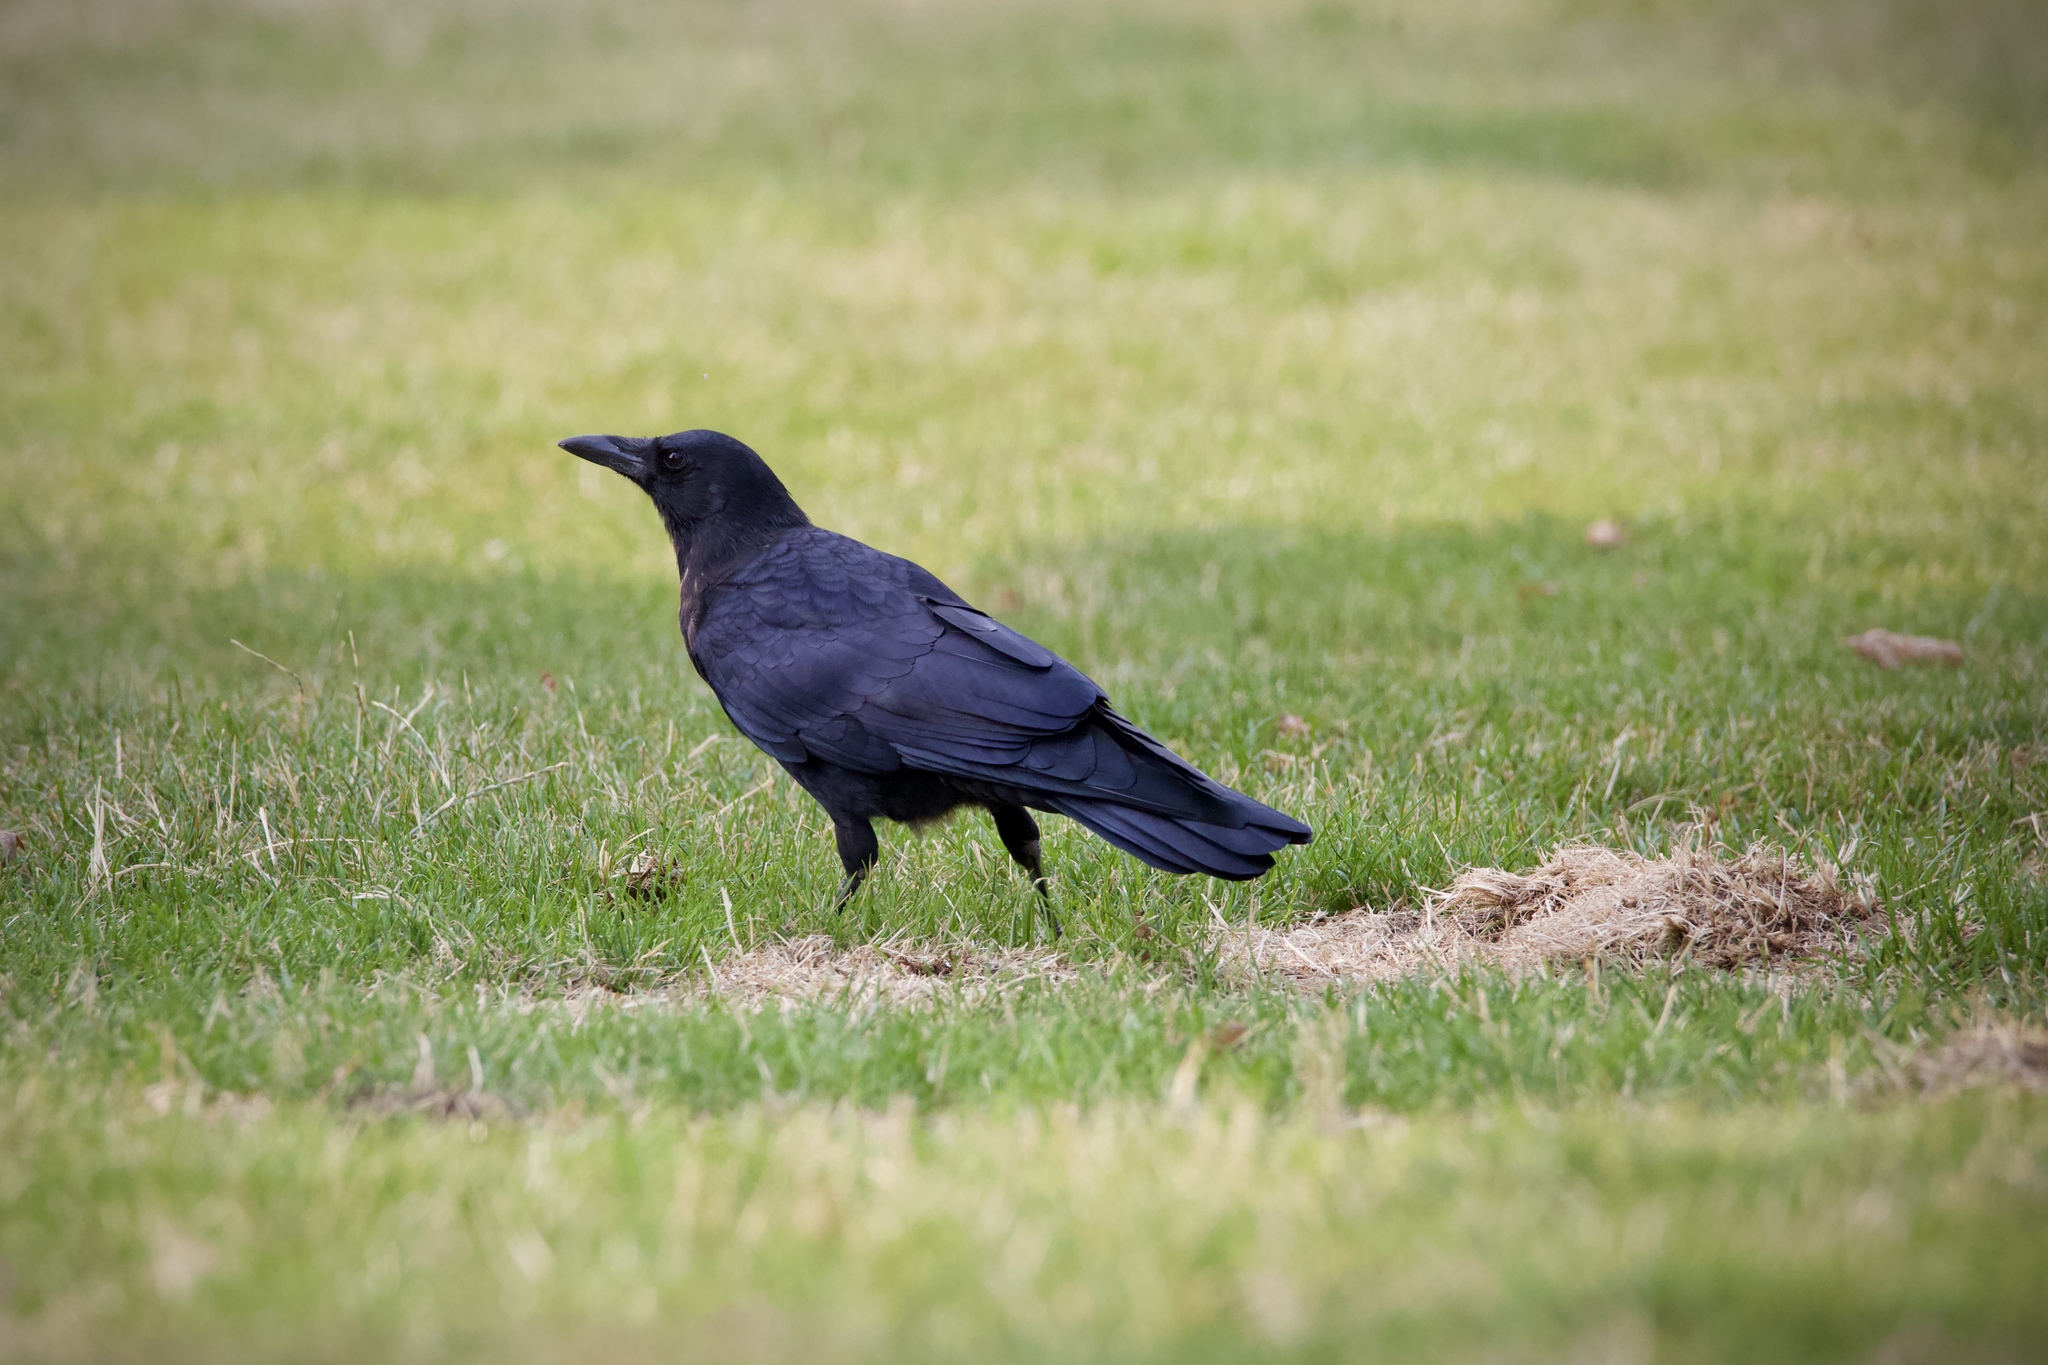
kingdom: Animalia
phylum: Chordata
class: Aves
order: Passeriformes
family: Corvidae
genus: Corvus
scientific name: Corvus brachyrhynchos
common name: American crow
